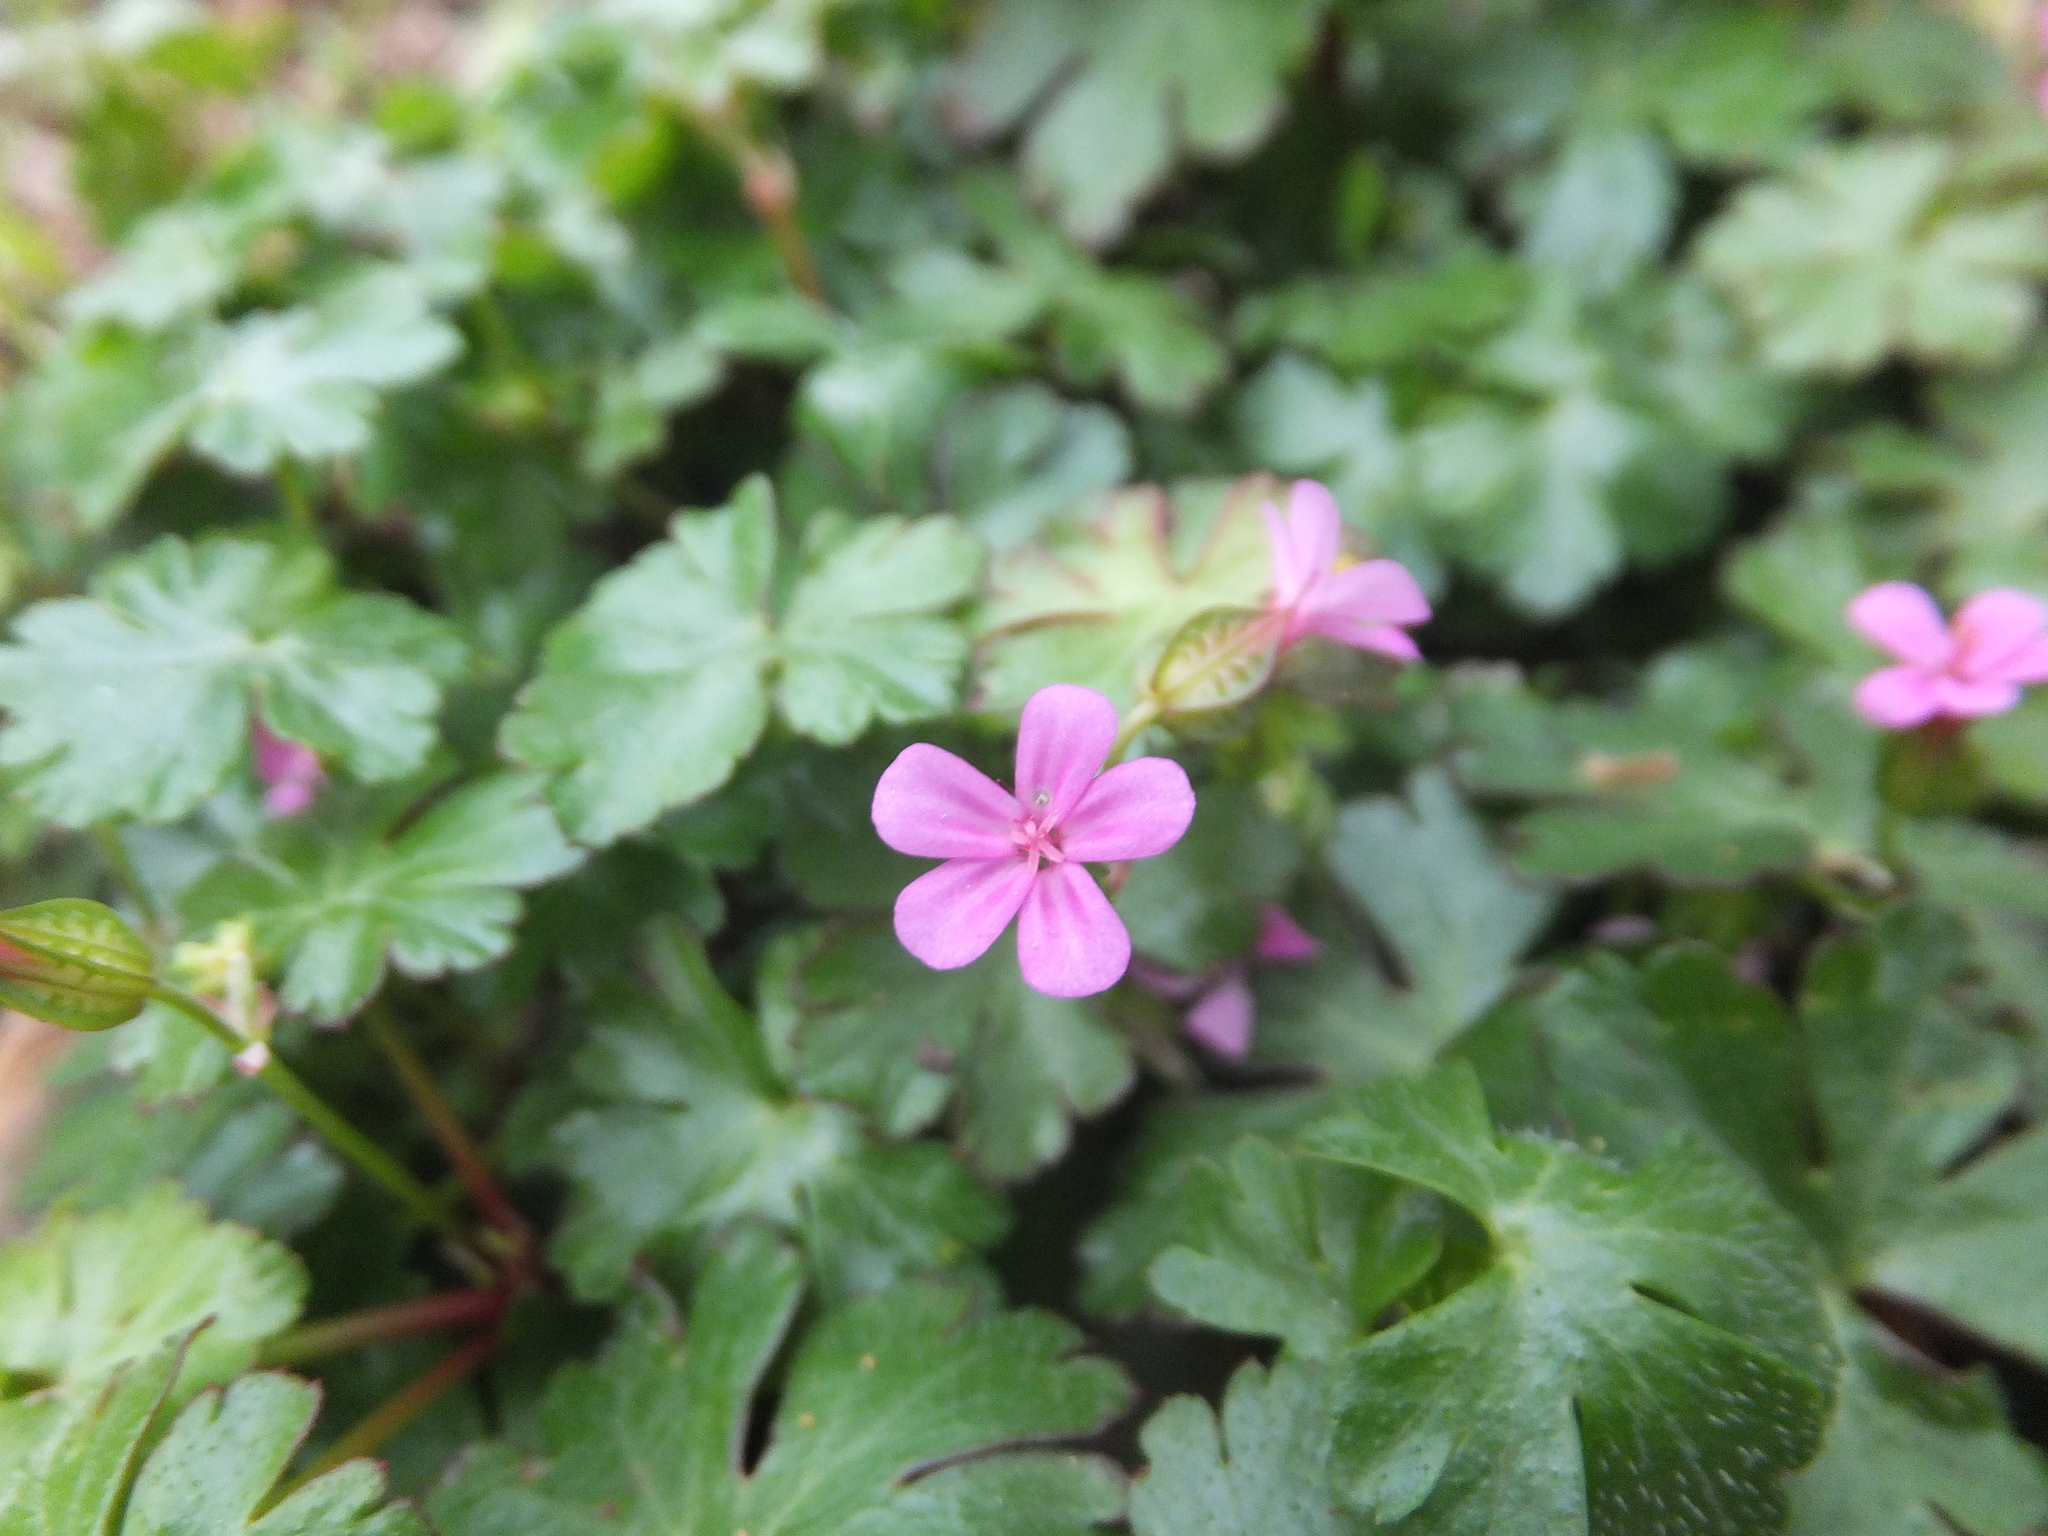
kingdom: Plantae
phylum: Tracheophyta
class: Magnoliopsida
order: Geraniales
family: Geraniaceae
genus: Geranium
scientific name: Geranium lucidum
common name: Shining crane's-bill
